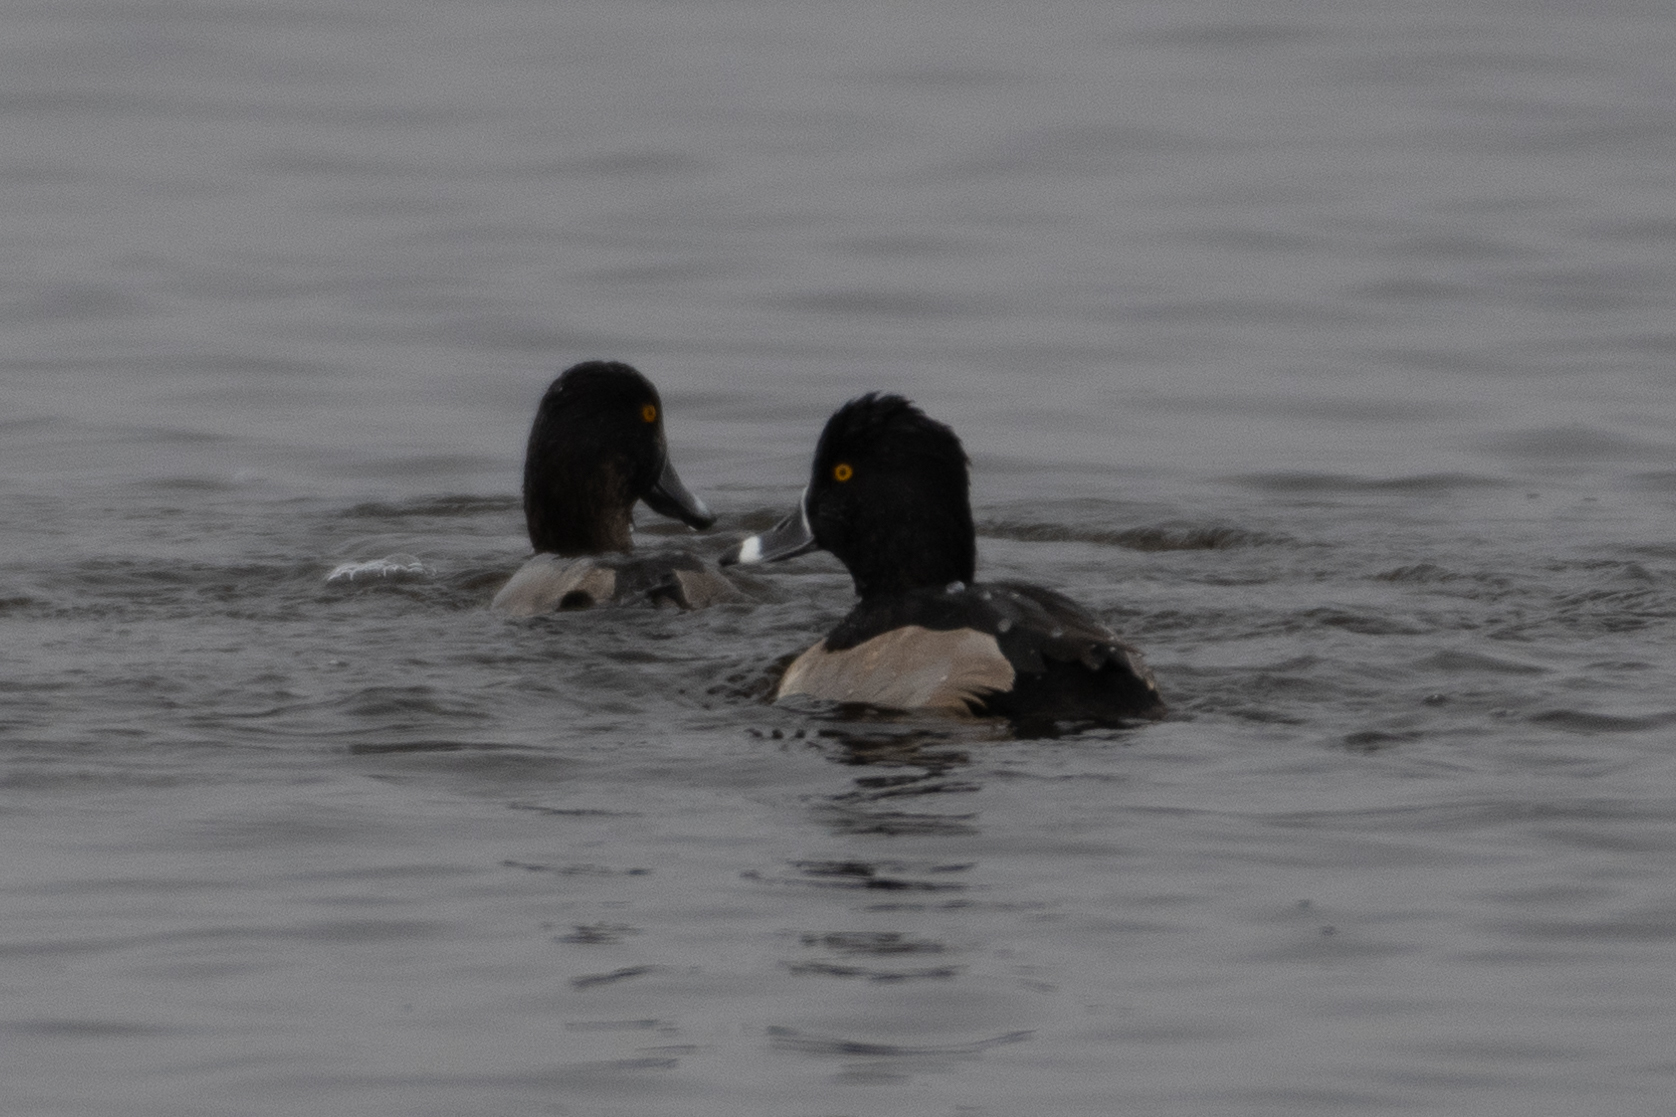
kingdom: Animalia
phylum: Chordata
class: Aves
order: Anseriformes
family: Anatidae
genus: Aythya
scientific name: Aythya collaris
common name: Ring-necked duck
